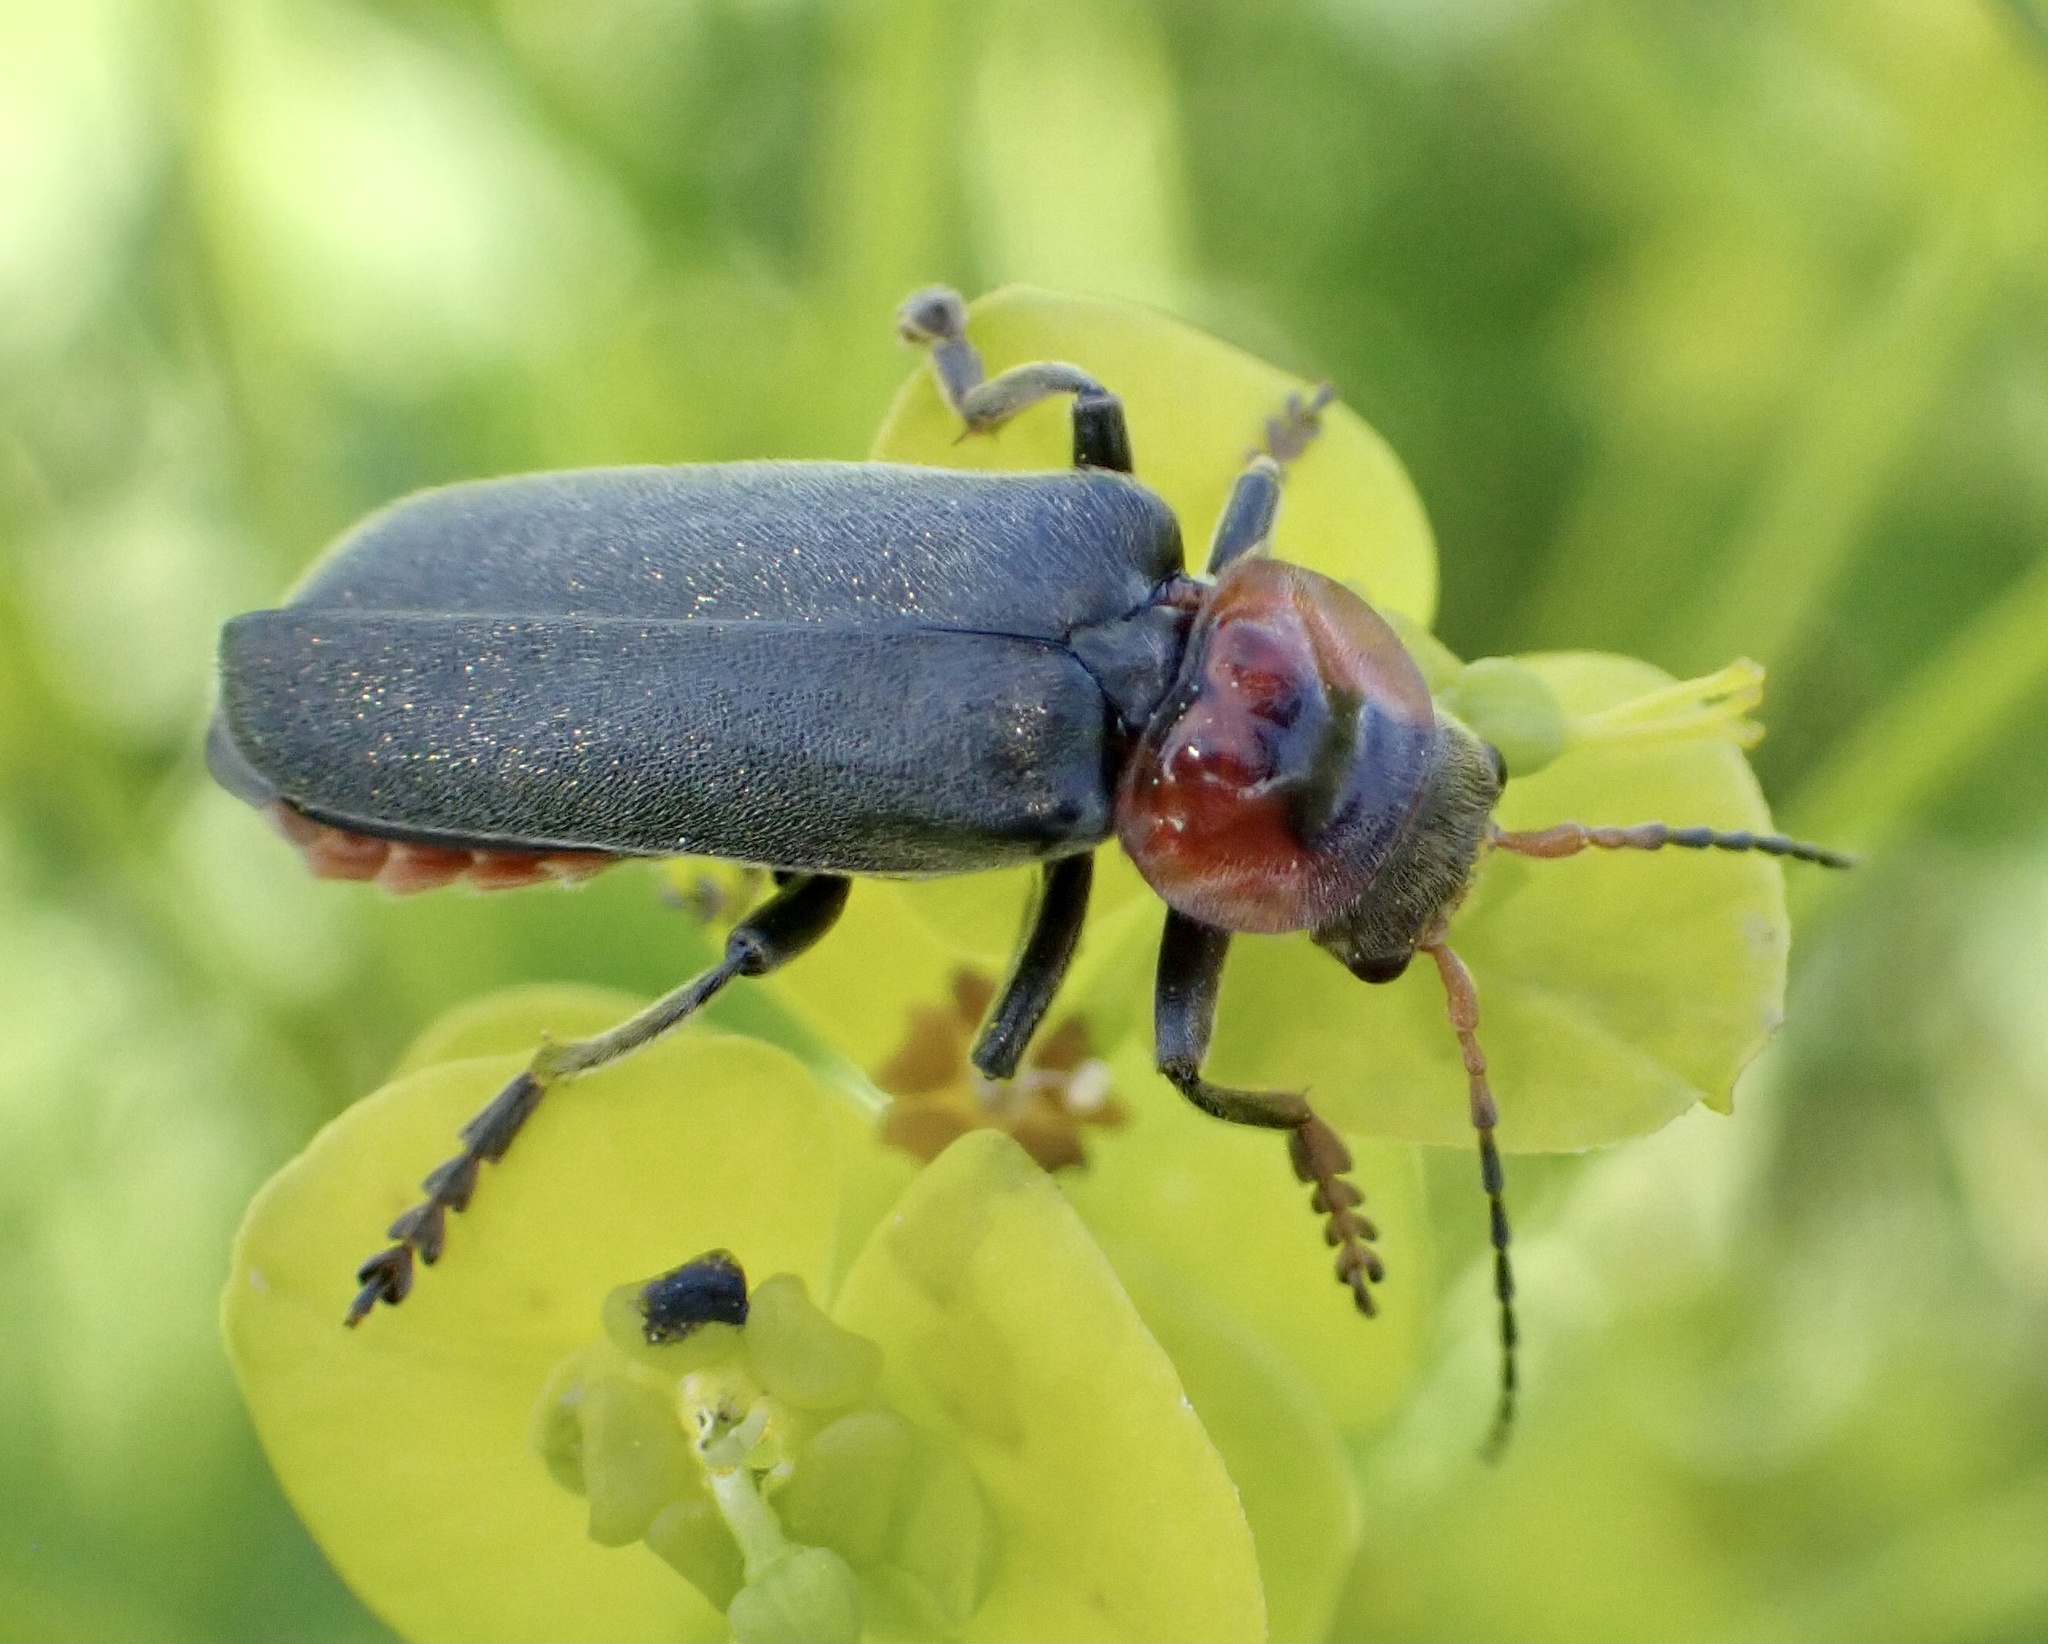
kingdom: Animalia
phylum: Arthropoda
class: Insecta
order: Coleoptera
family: Cantharidae
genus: Cantharis
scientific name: Cantharis fusca
